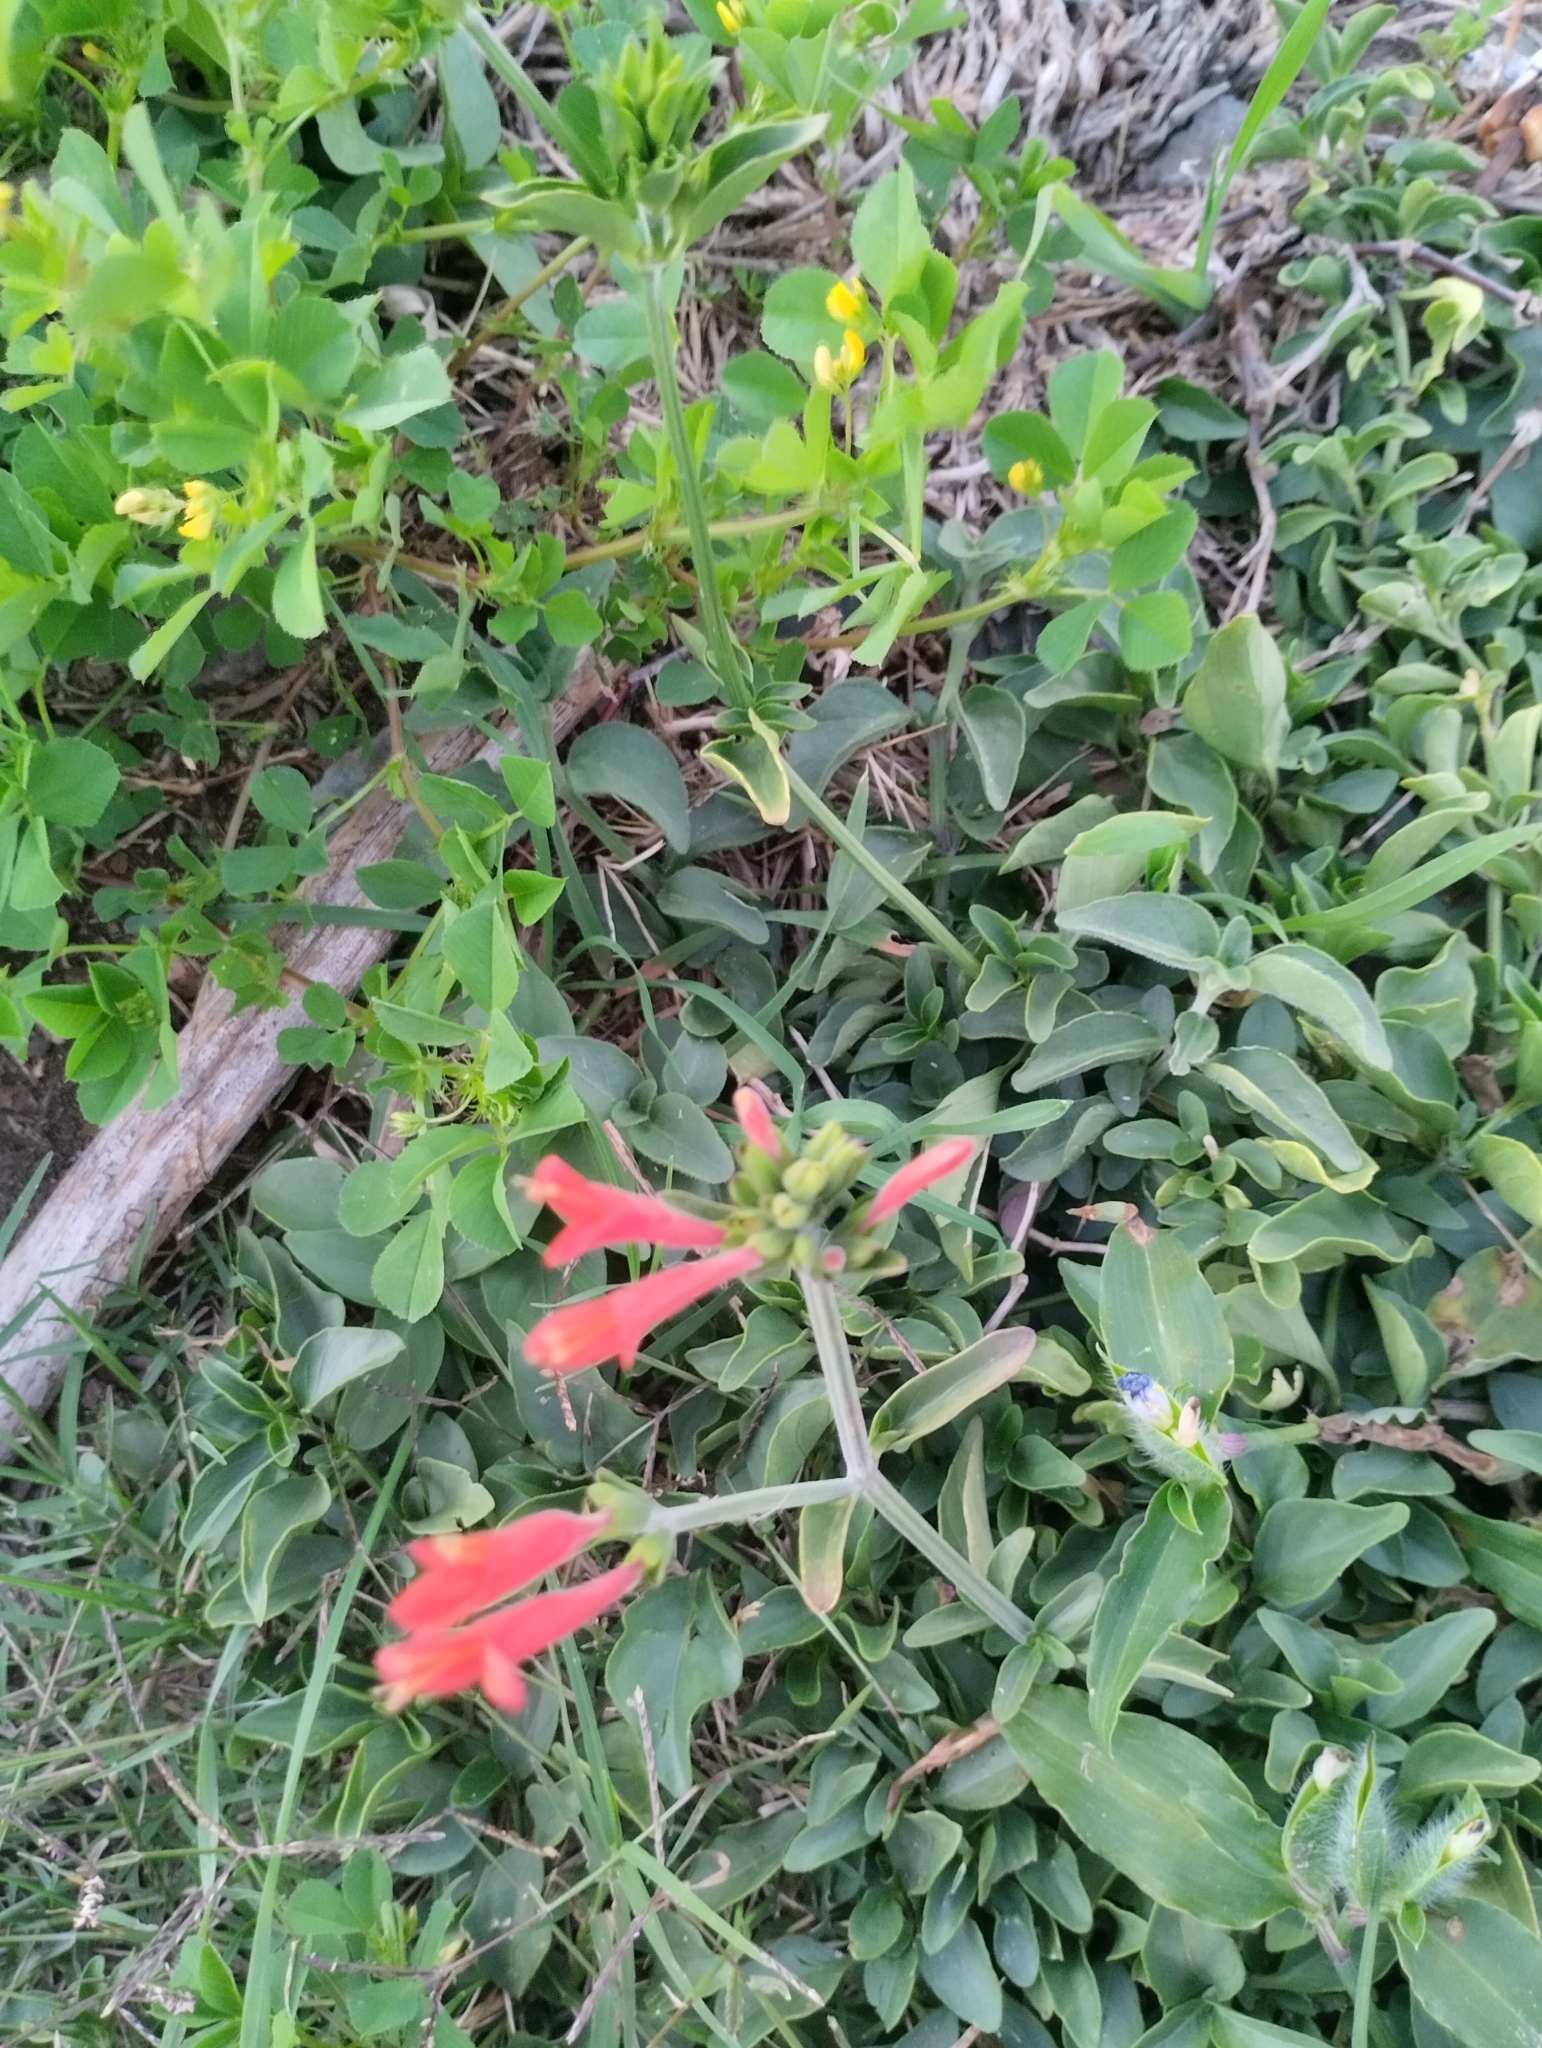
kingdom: Plantae
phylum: Tracheophyta
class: Magnoliopsida
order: Lamiales
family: Acanthaceae
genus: Dicliptera
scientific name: Dicliptera squarrosa
